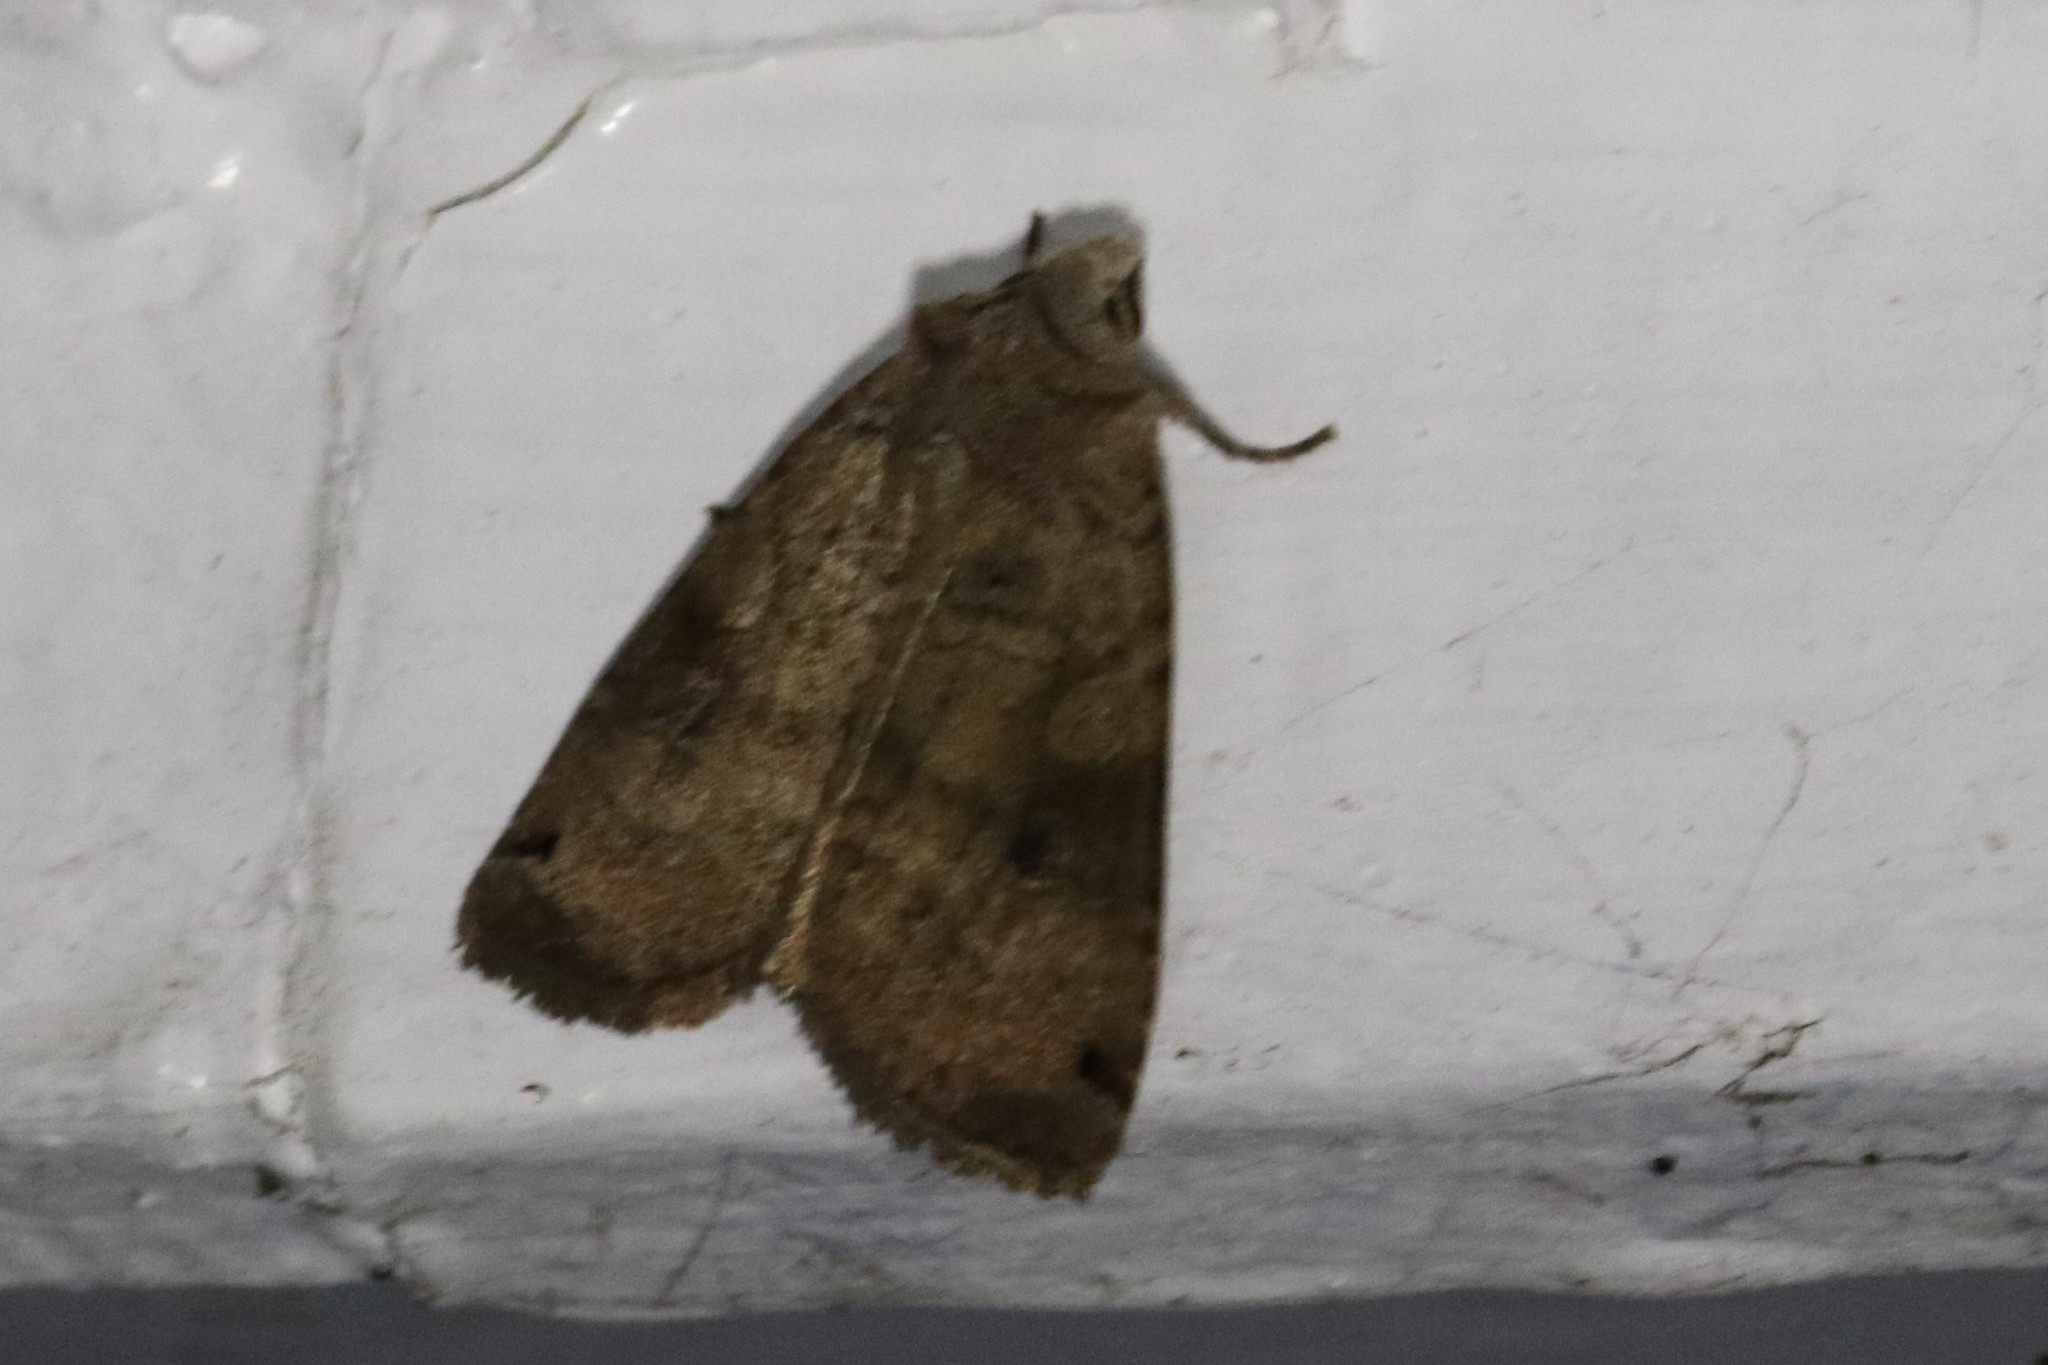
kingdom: Animalia
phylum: Arthropoda
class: Insecta
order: Lepidoptera
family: Noctuidae
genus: Xestia
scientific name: Xestia smithii
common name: Smith's dart
